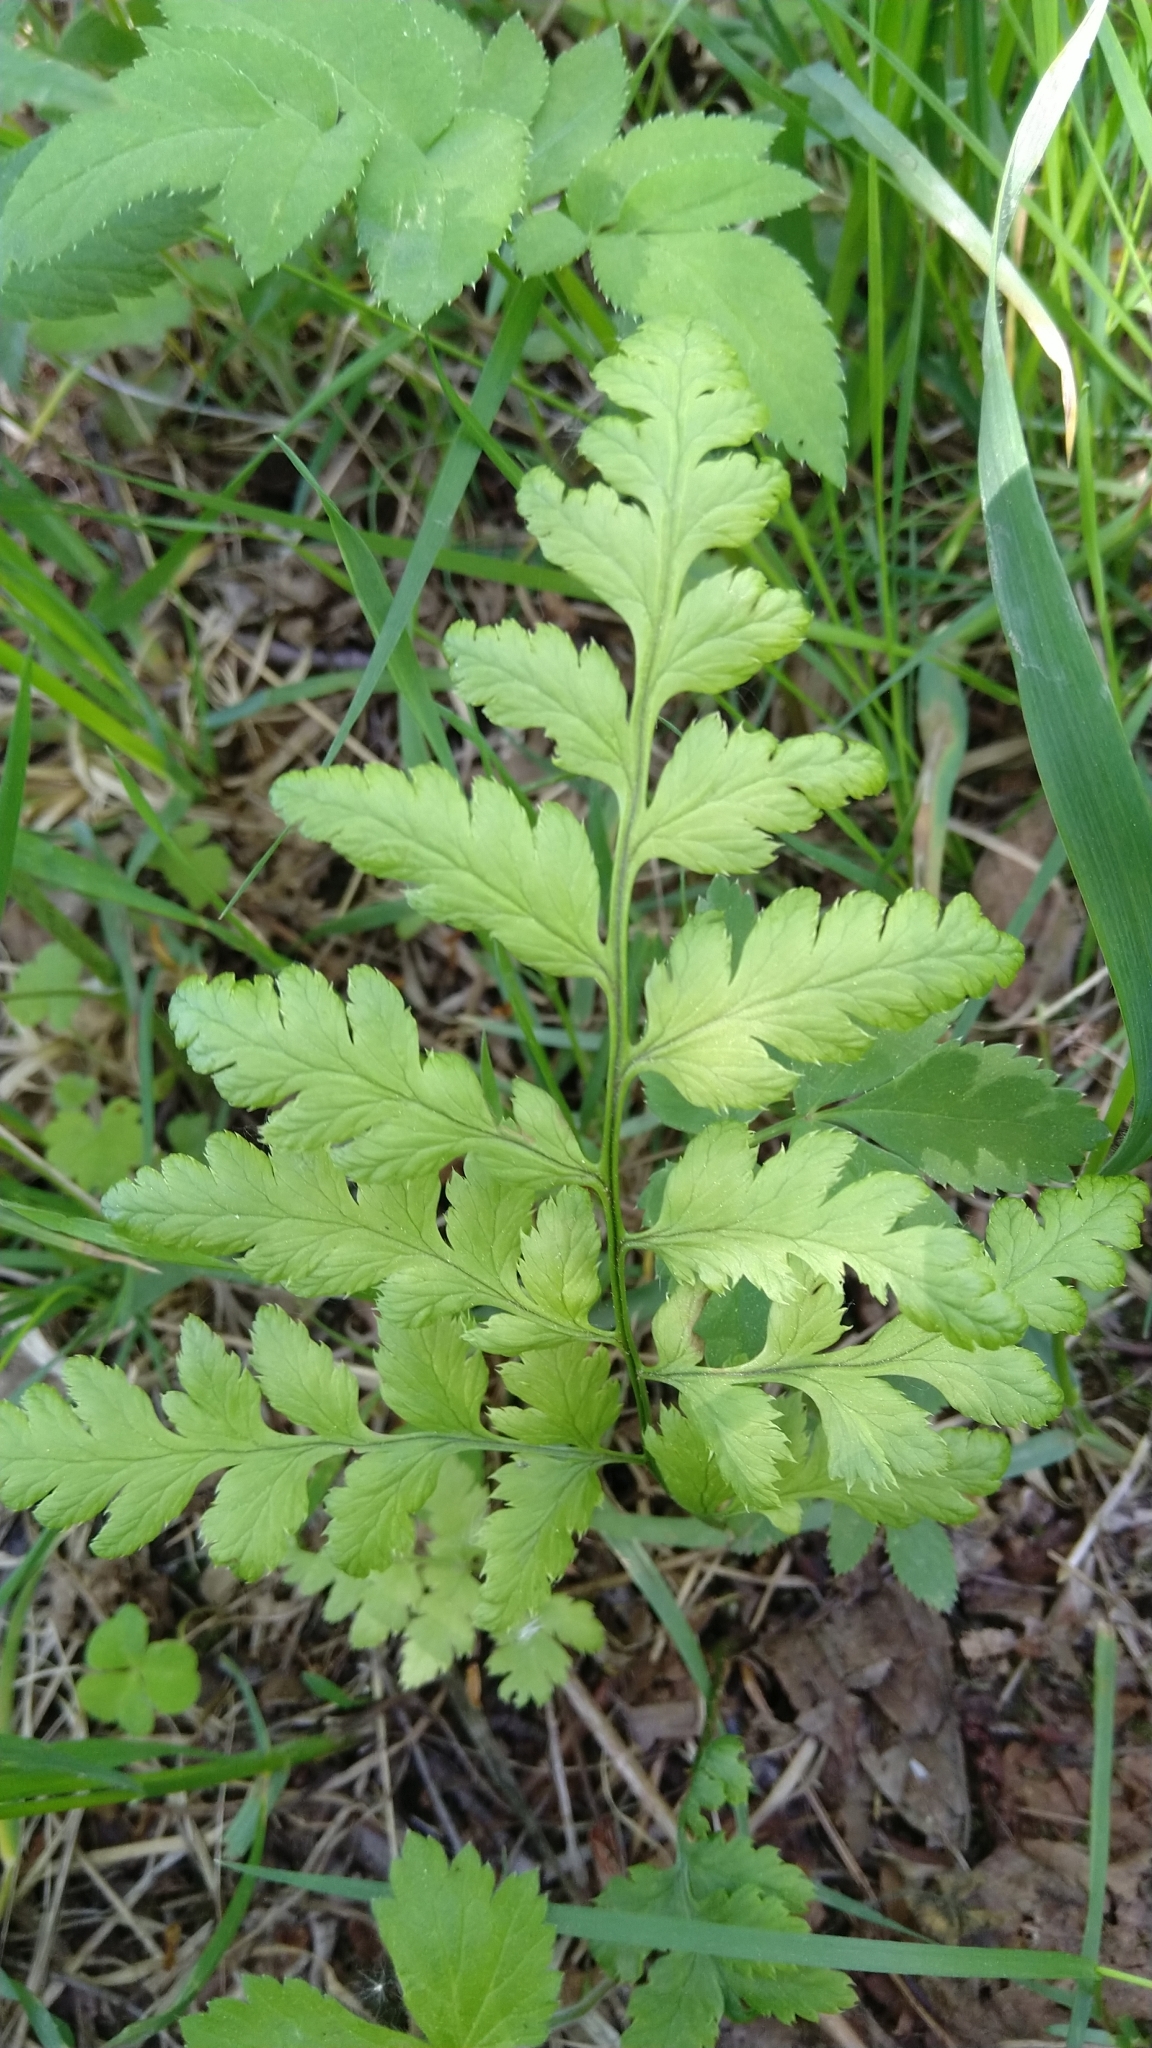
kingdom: Plantae
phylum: Tracheophyta
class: Polypodiopsida
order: Polypodiales
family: Cystopteridaceae
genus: Cystopteris
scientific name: Cystopteris fragilis
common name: Brittle bladder fern
